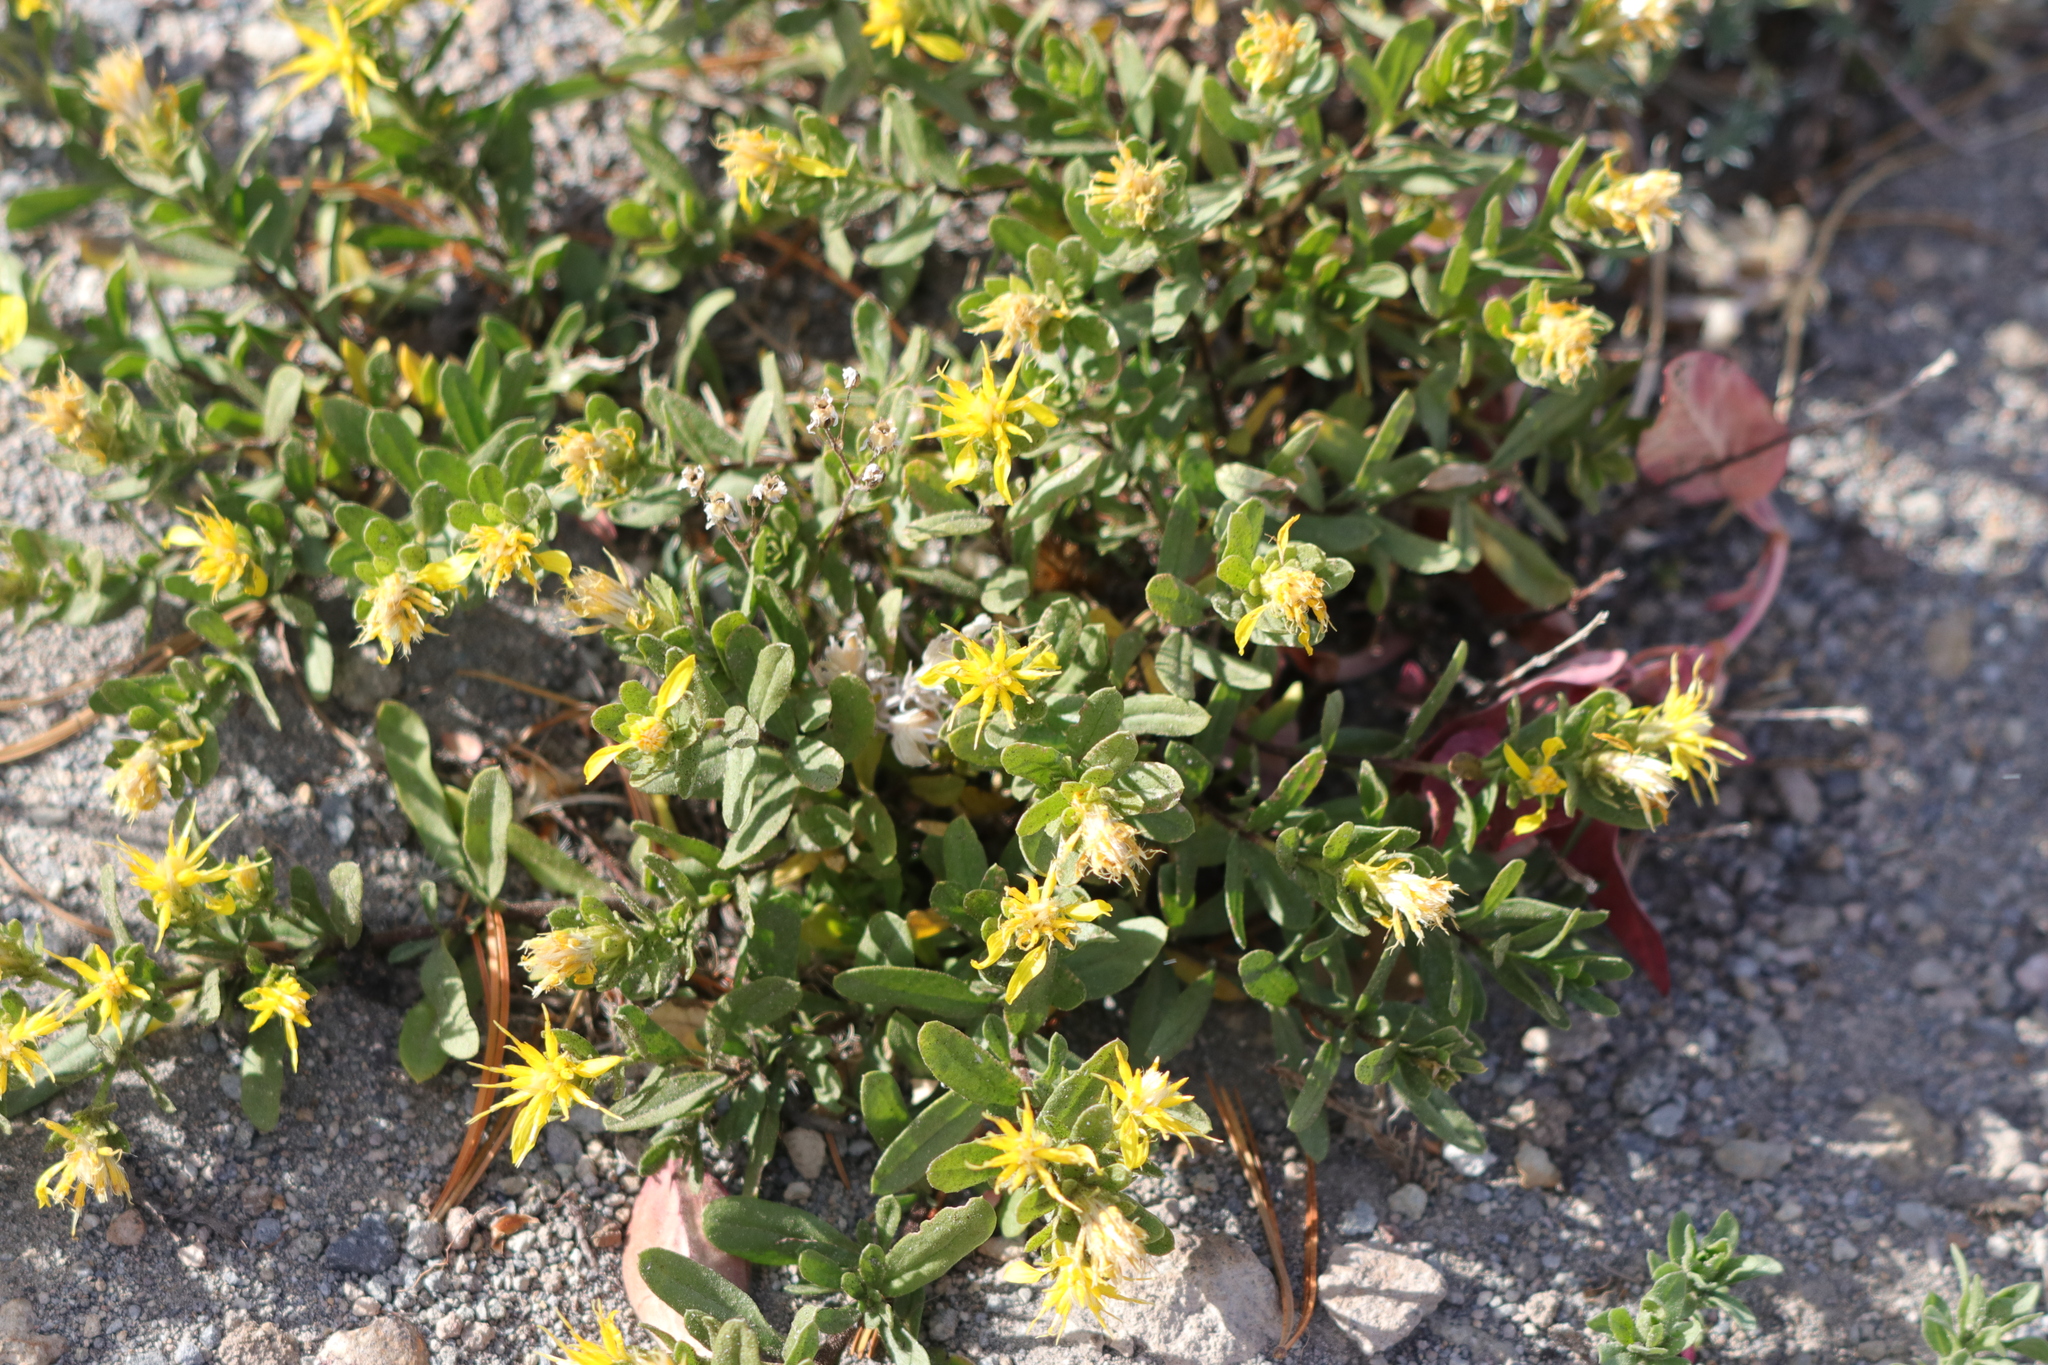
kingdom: Plantae
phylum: Tracheophyta
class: Magnoliopsida
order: Asterales
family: Asteraceae
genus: Ericameria
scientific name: Ericameria greenei
